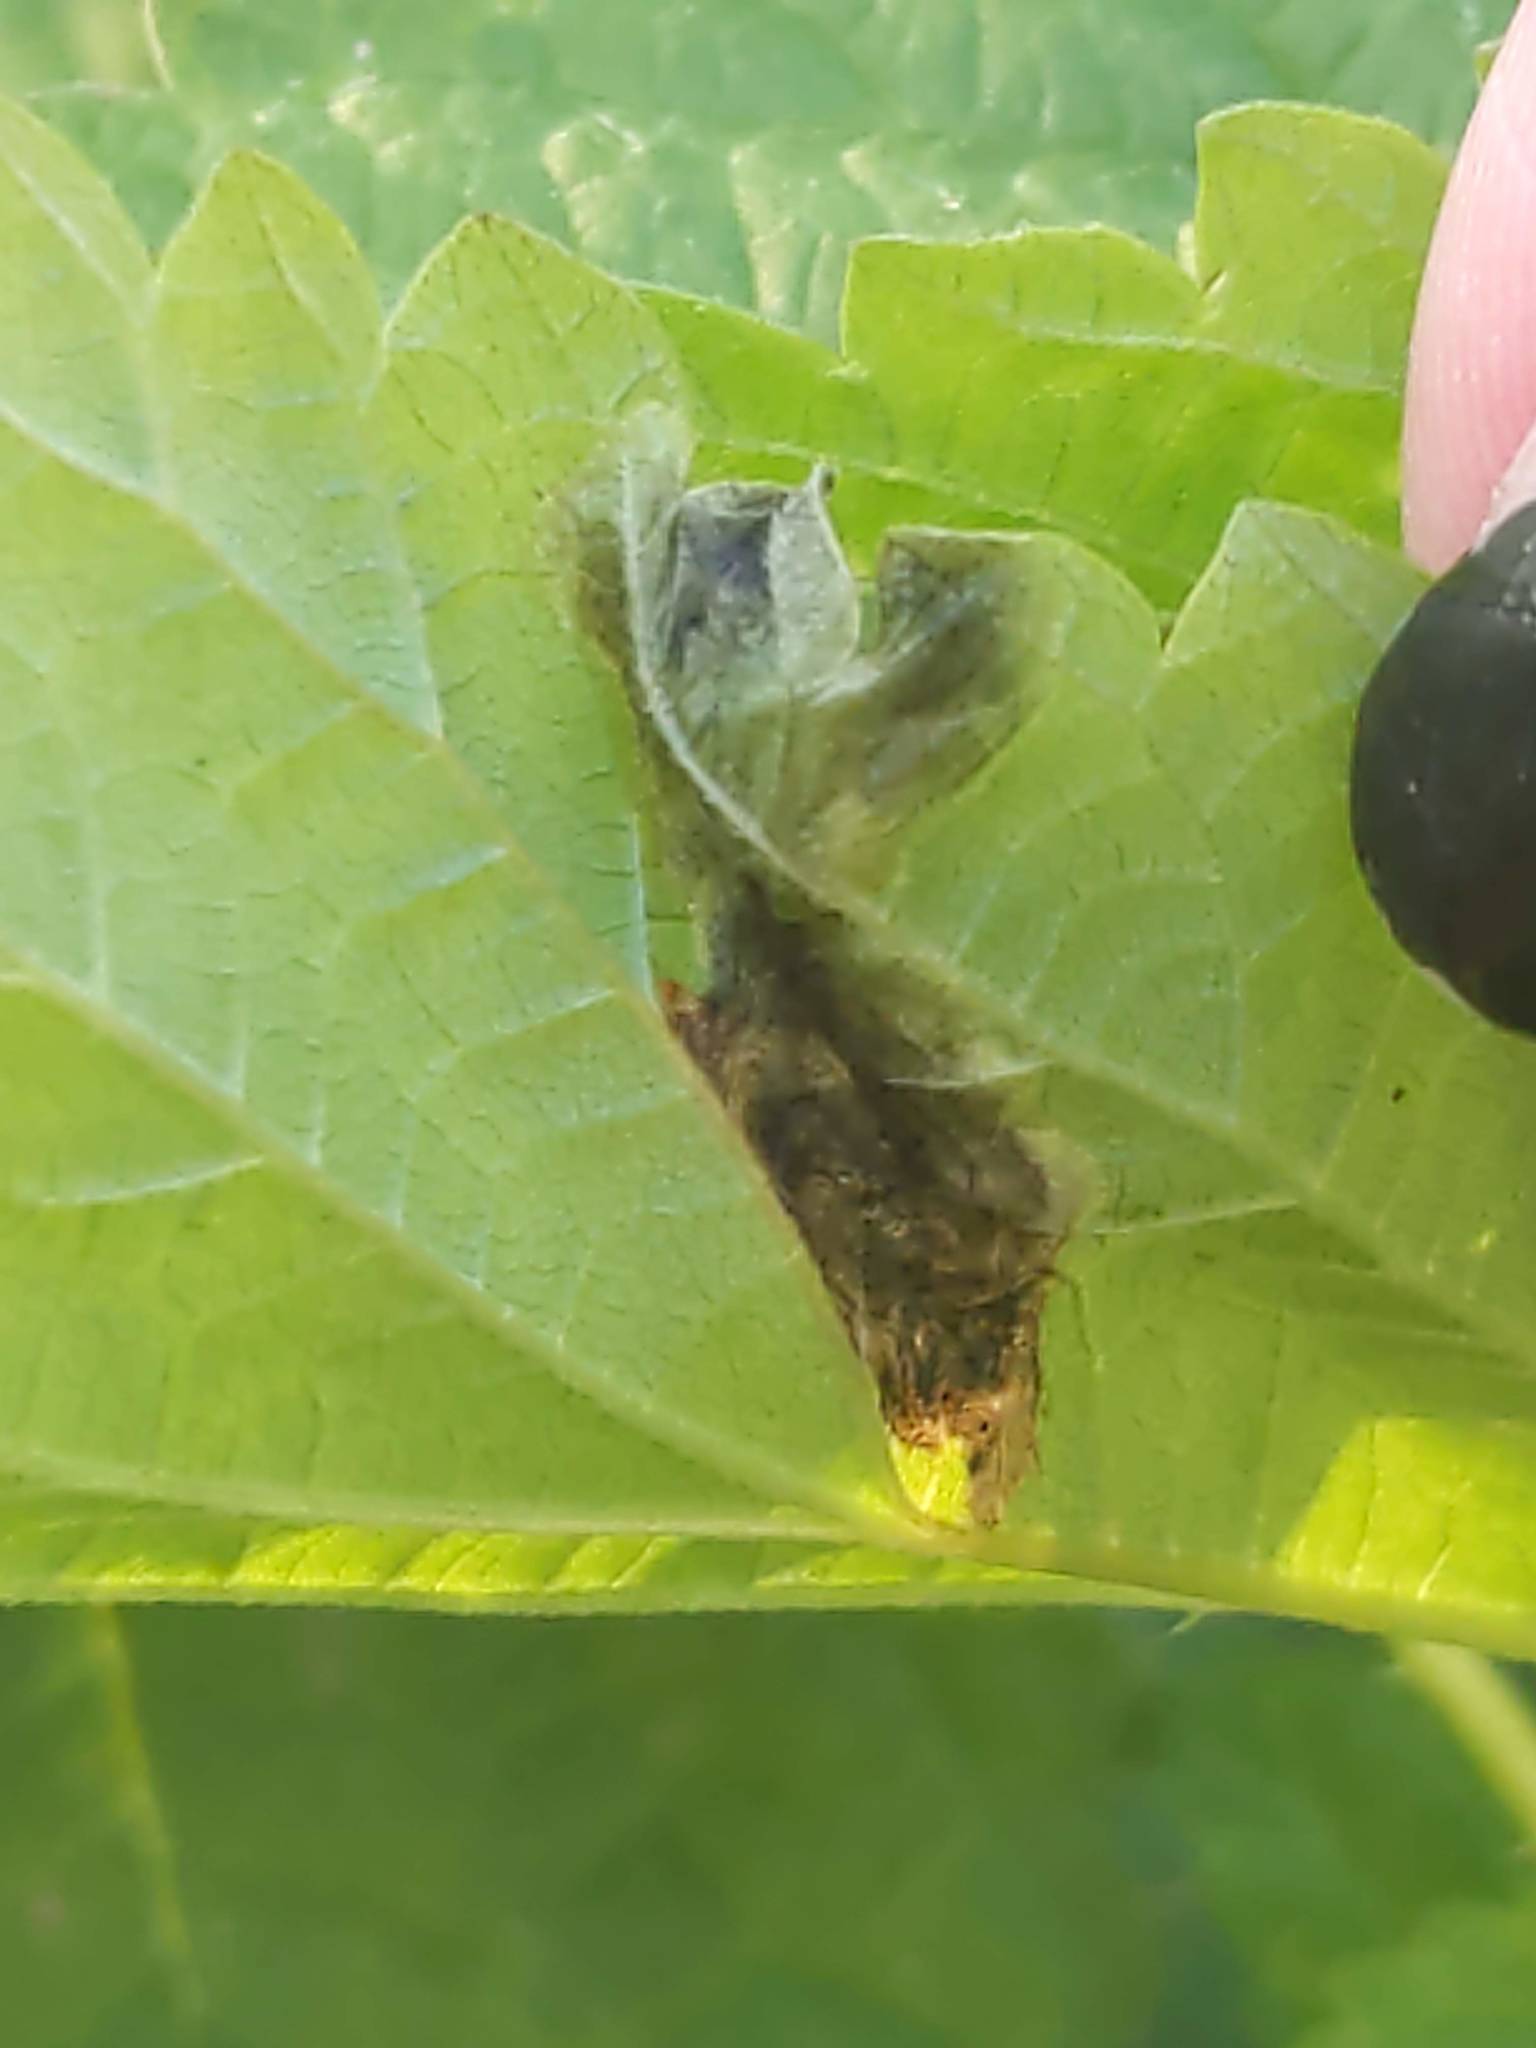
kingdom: Animalia
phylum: Arthropoda
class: Insecta
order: Diptera
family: Agromyzidae
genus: Agromyza
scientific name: Agromyza pseudoreptans
